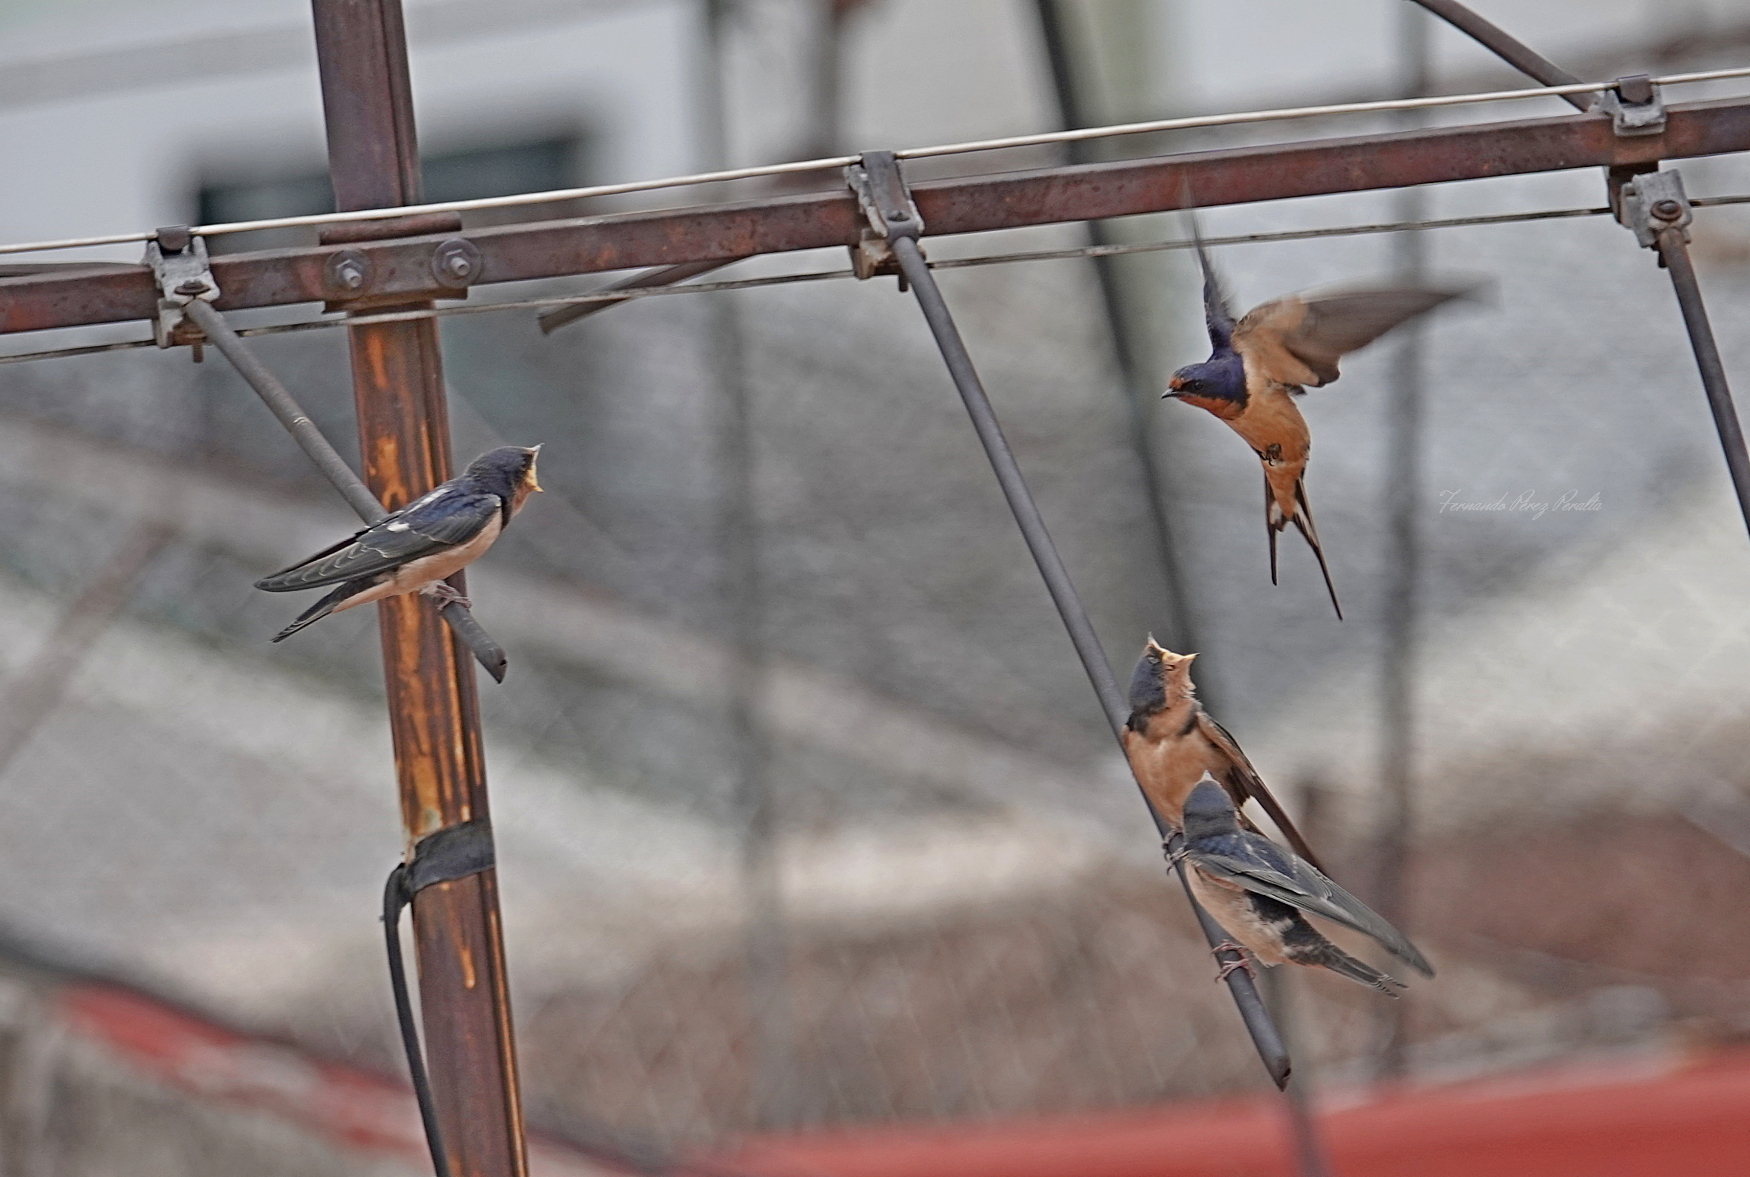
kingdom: Animalia
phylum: Chordata
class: Aves
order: Passeriformes
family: Hirundinidae
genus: Hirundo
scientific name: Hirundo rustica
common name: Barn swallow
